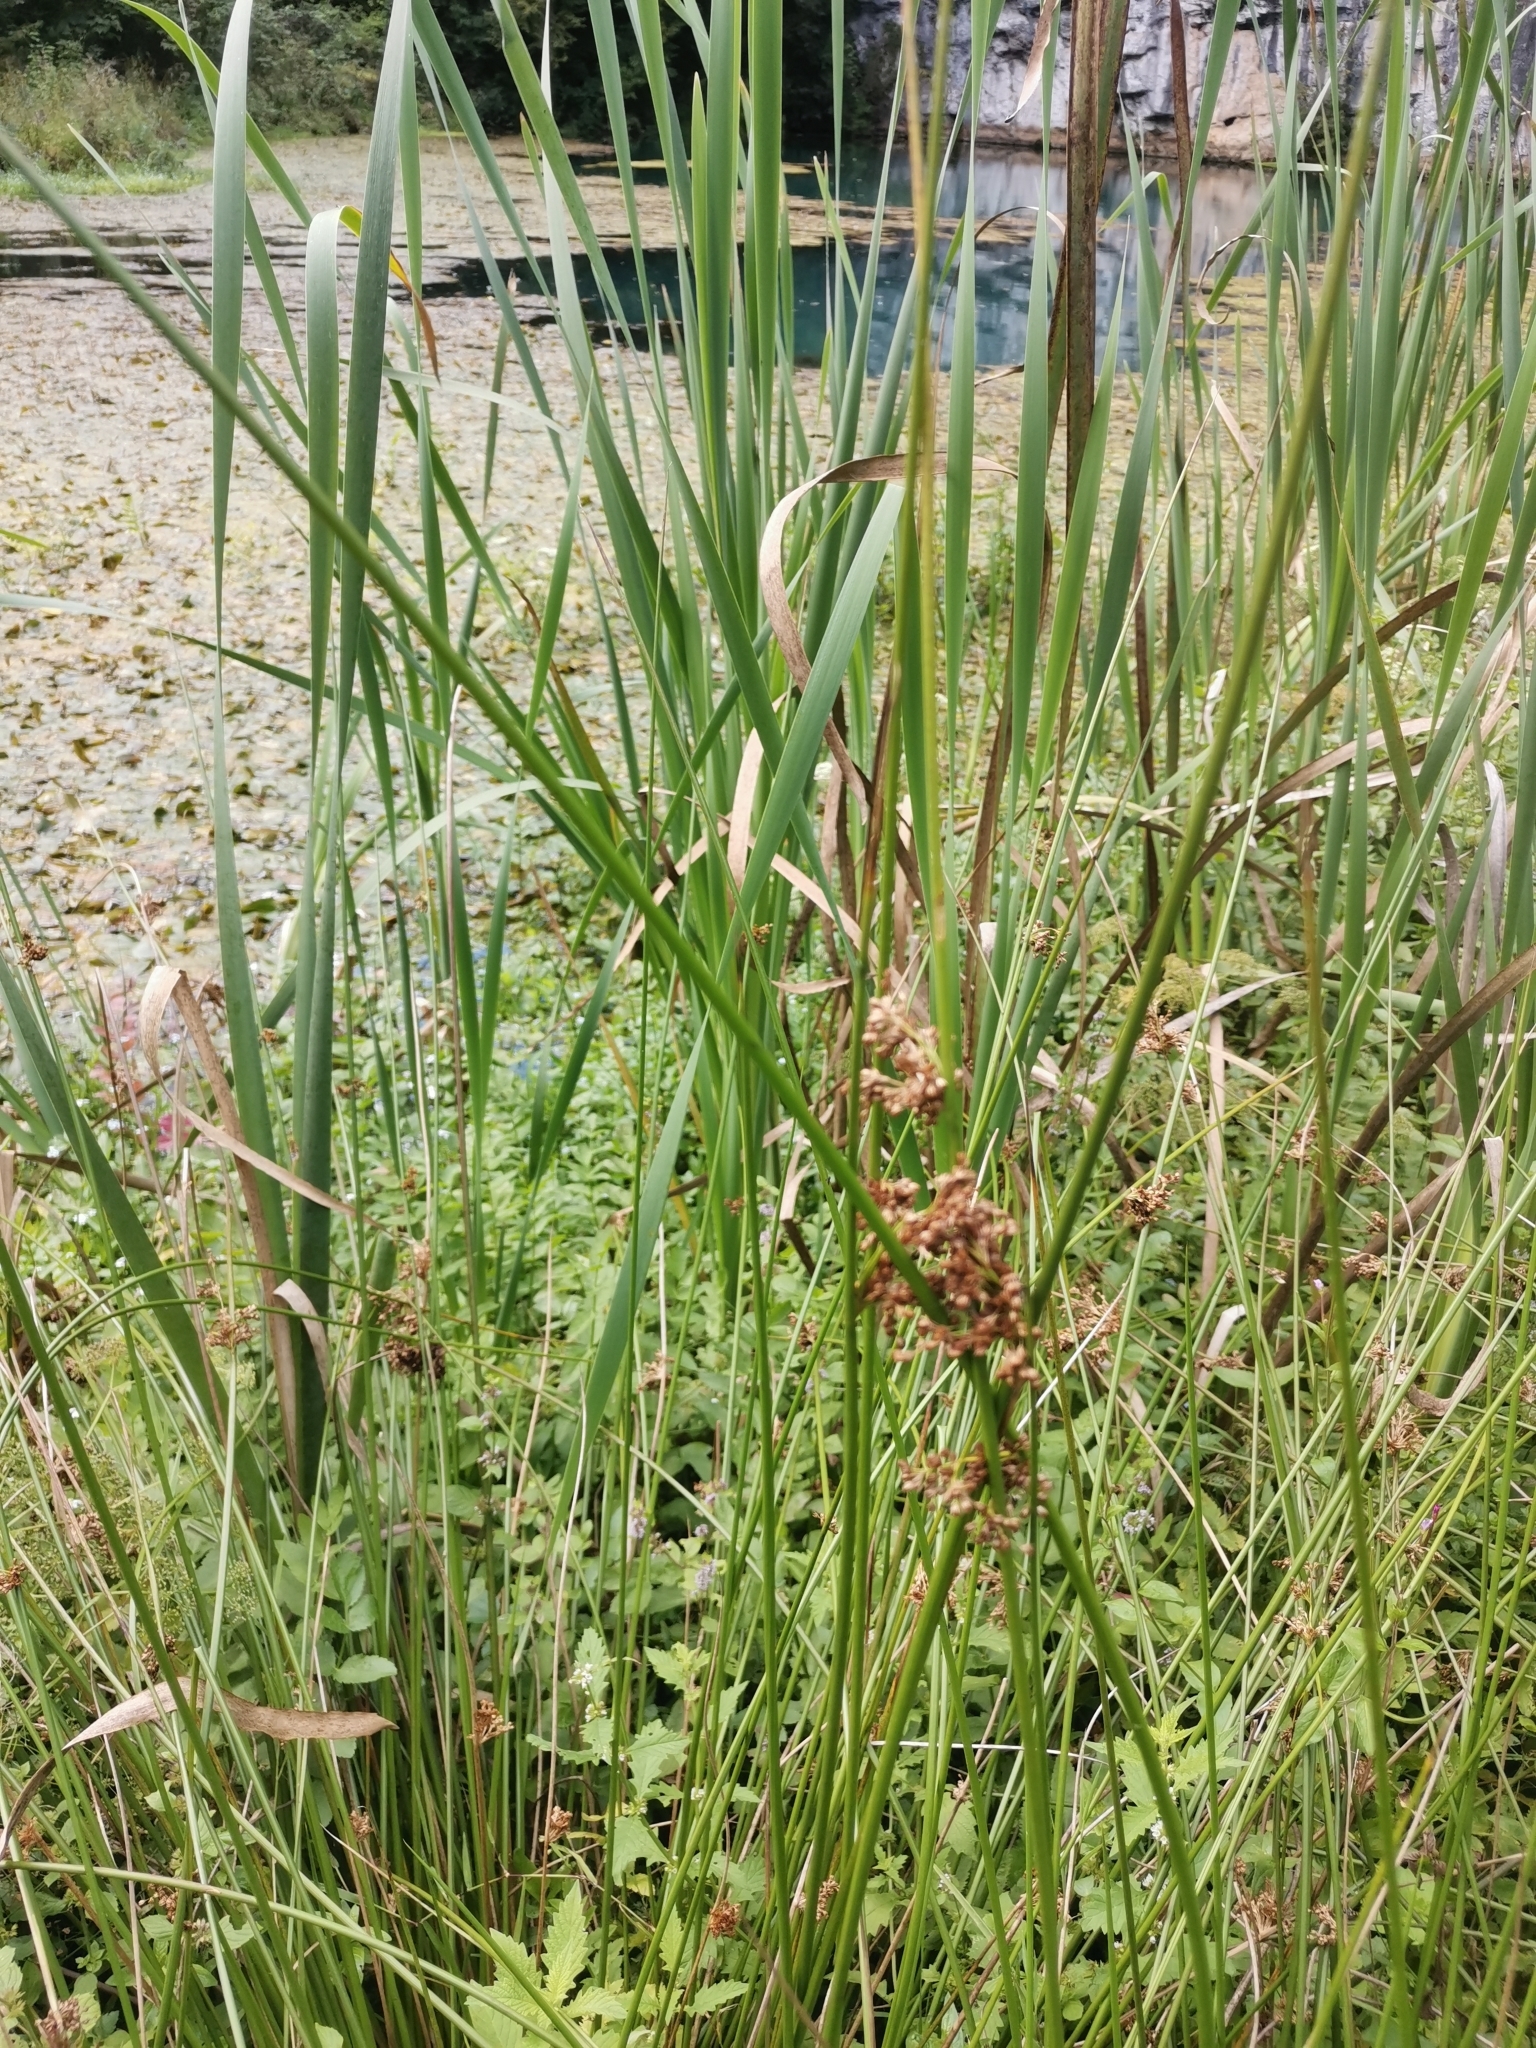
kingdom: Plantae
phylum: Tracheophyta
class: Liliopsida
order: Poales
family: Juncaceae
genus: Juncus
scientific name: Juncus effusus
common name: Soft rush
